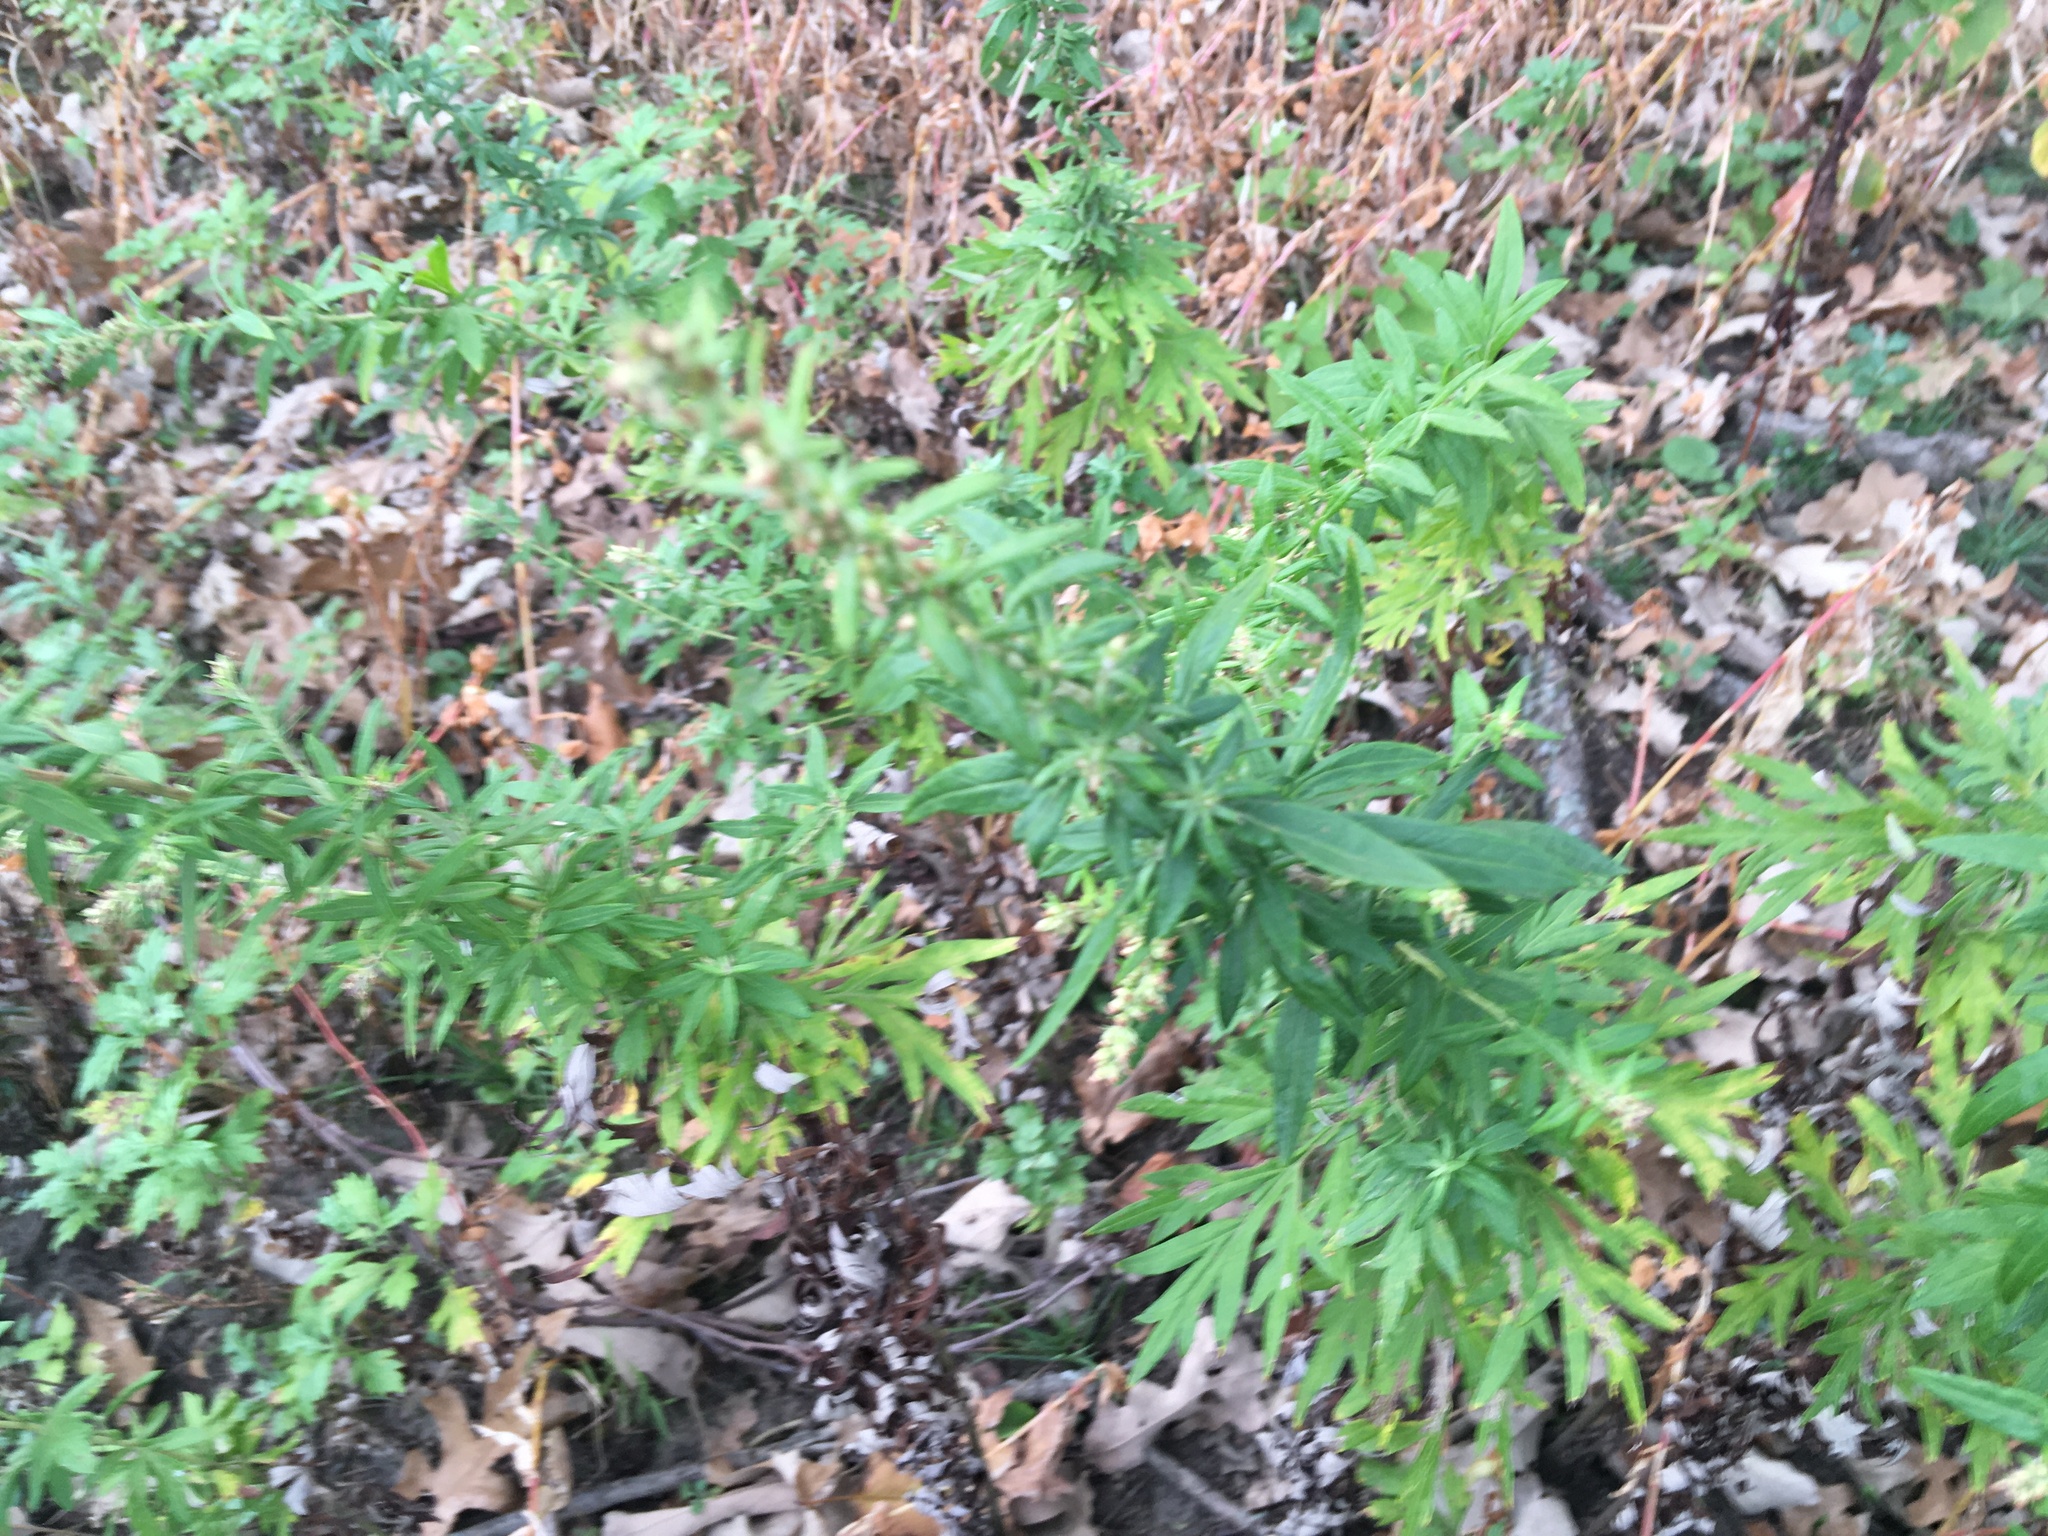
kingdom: Plantae
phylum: Tracheophyta
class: Magnoliopsida
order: Asterales
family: Asteraceae
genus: Artemisia
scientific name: Artemisia vulgaris
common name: Mugwort
